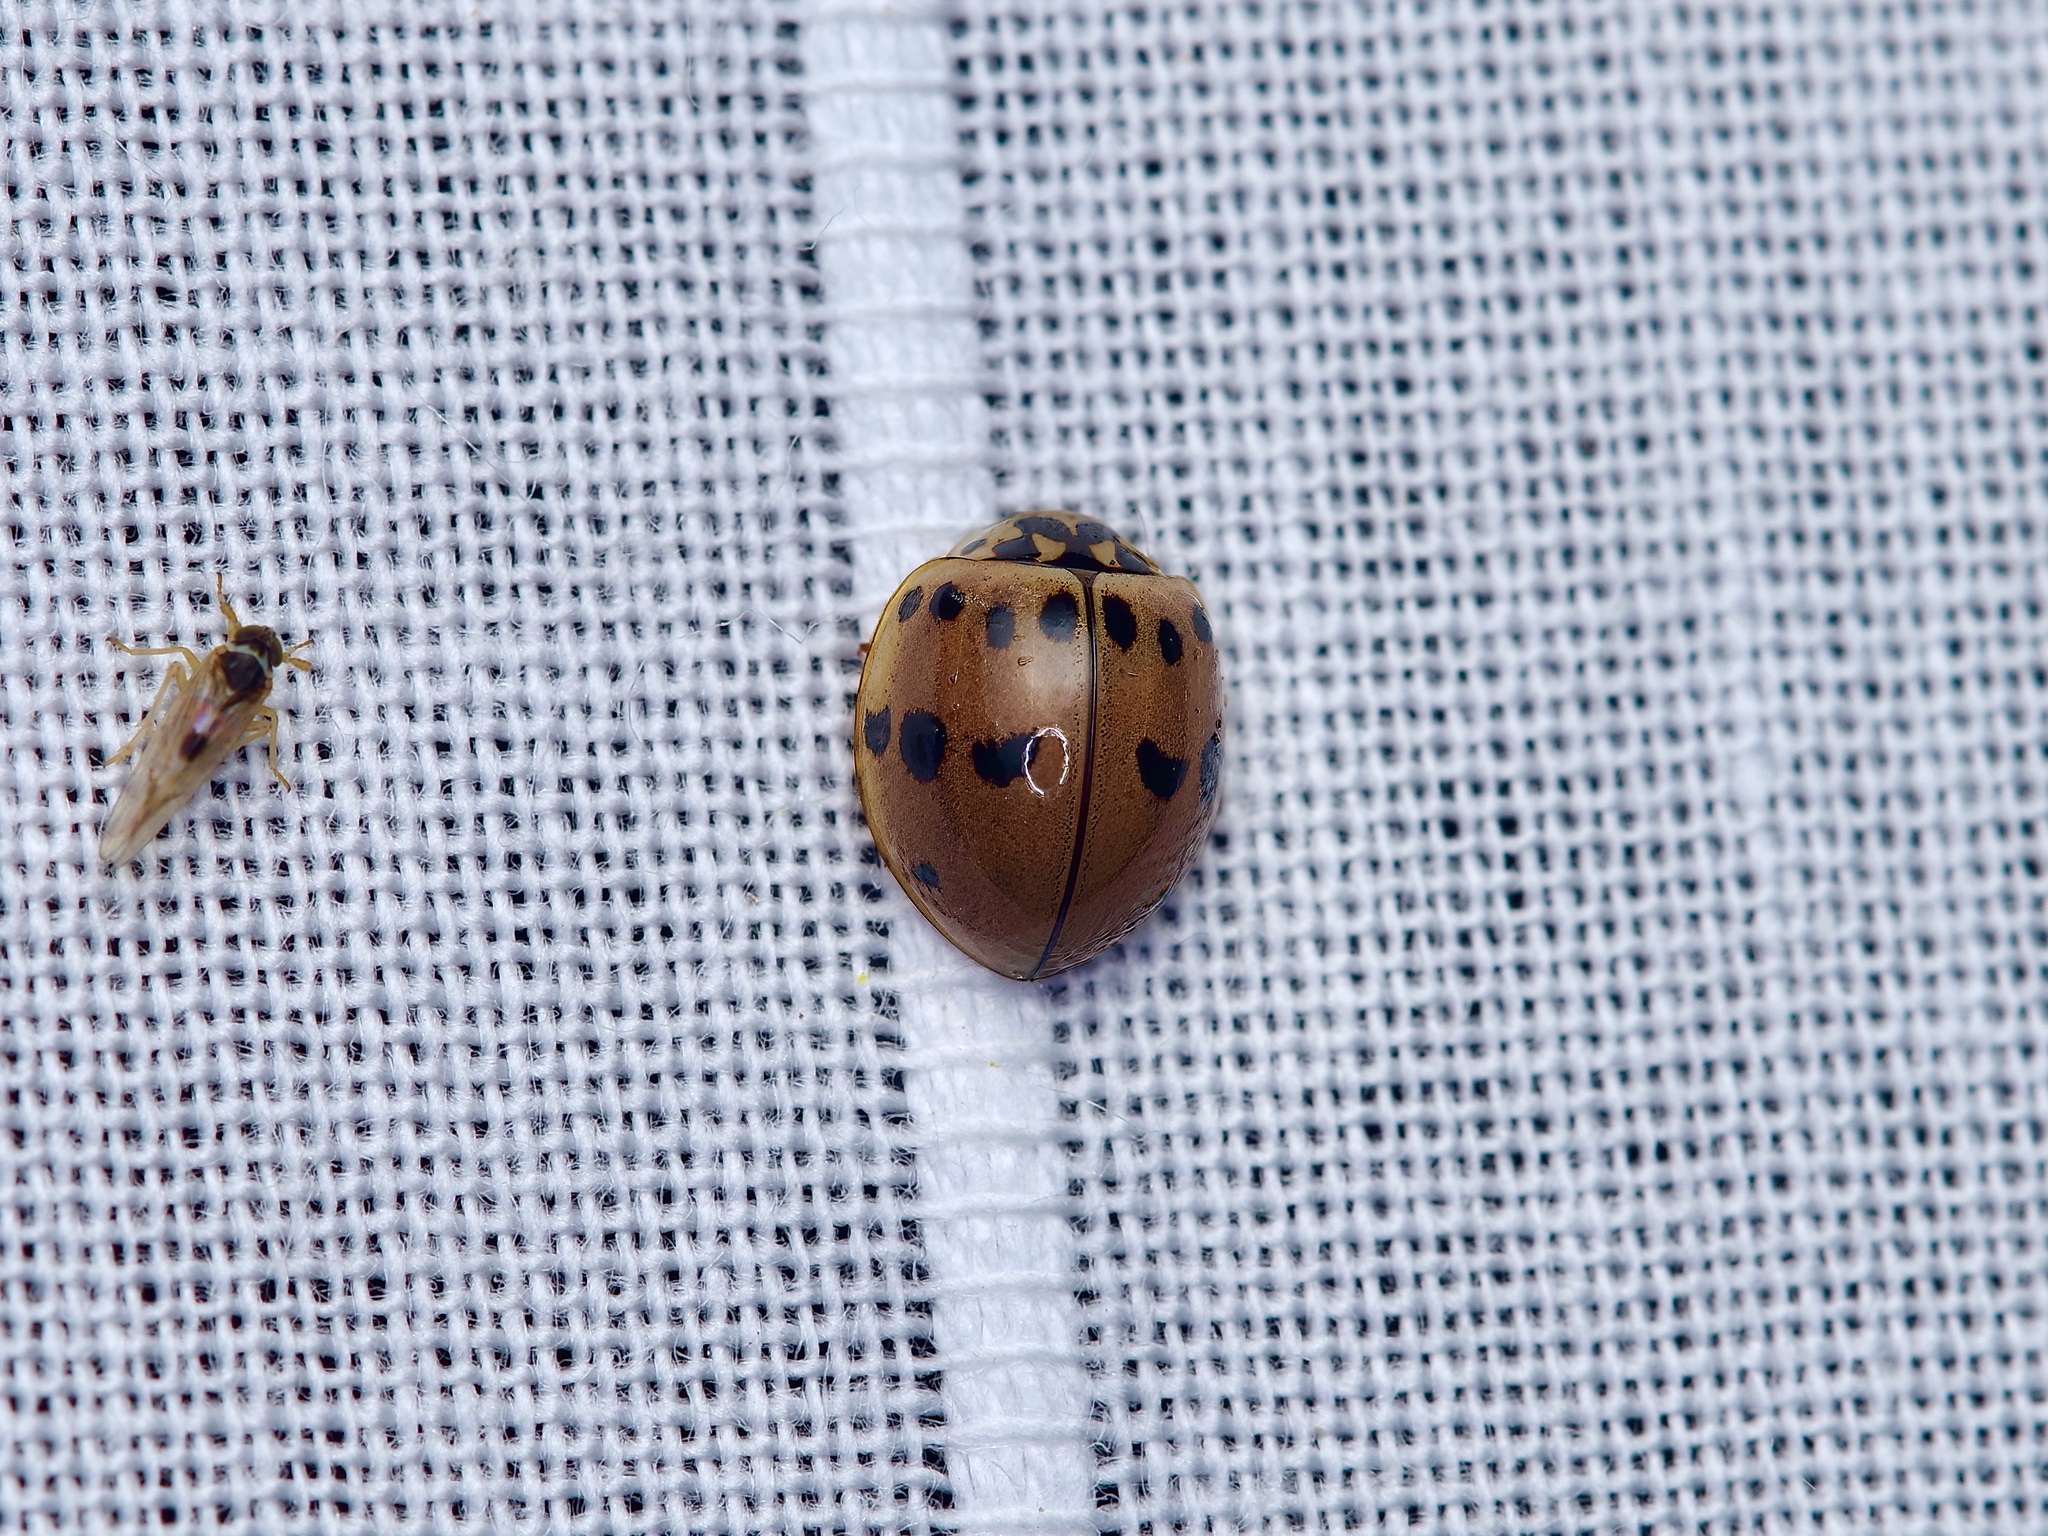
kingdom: Animalia
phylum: Arthropoda
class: Insecta
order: Coleoptera
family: Coccinellidae
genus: Olla
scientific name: Olla v-nigrum
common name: Ashy gray lady beetle
